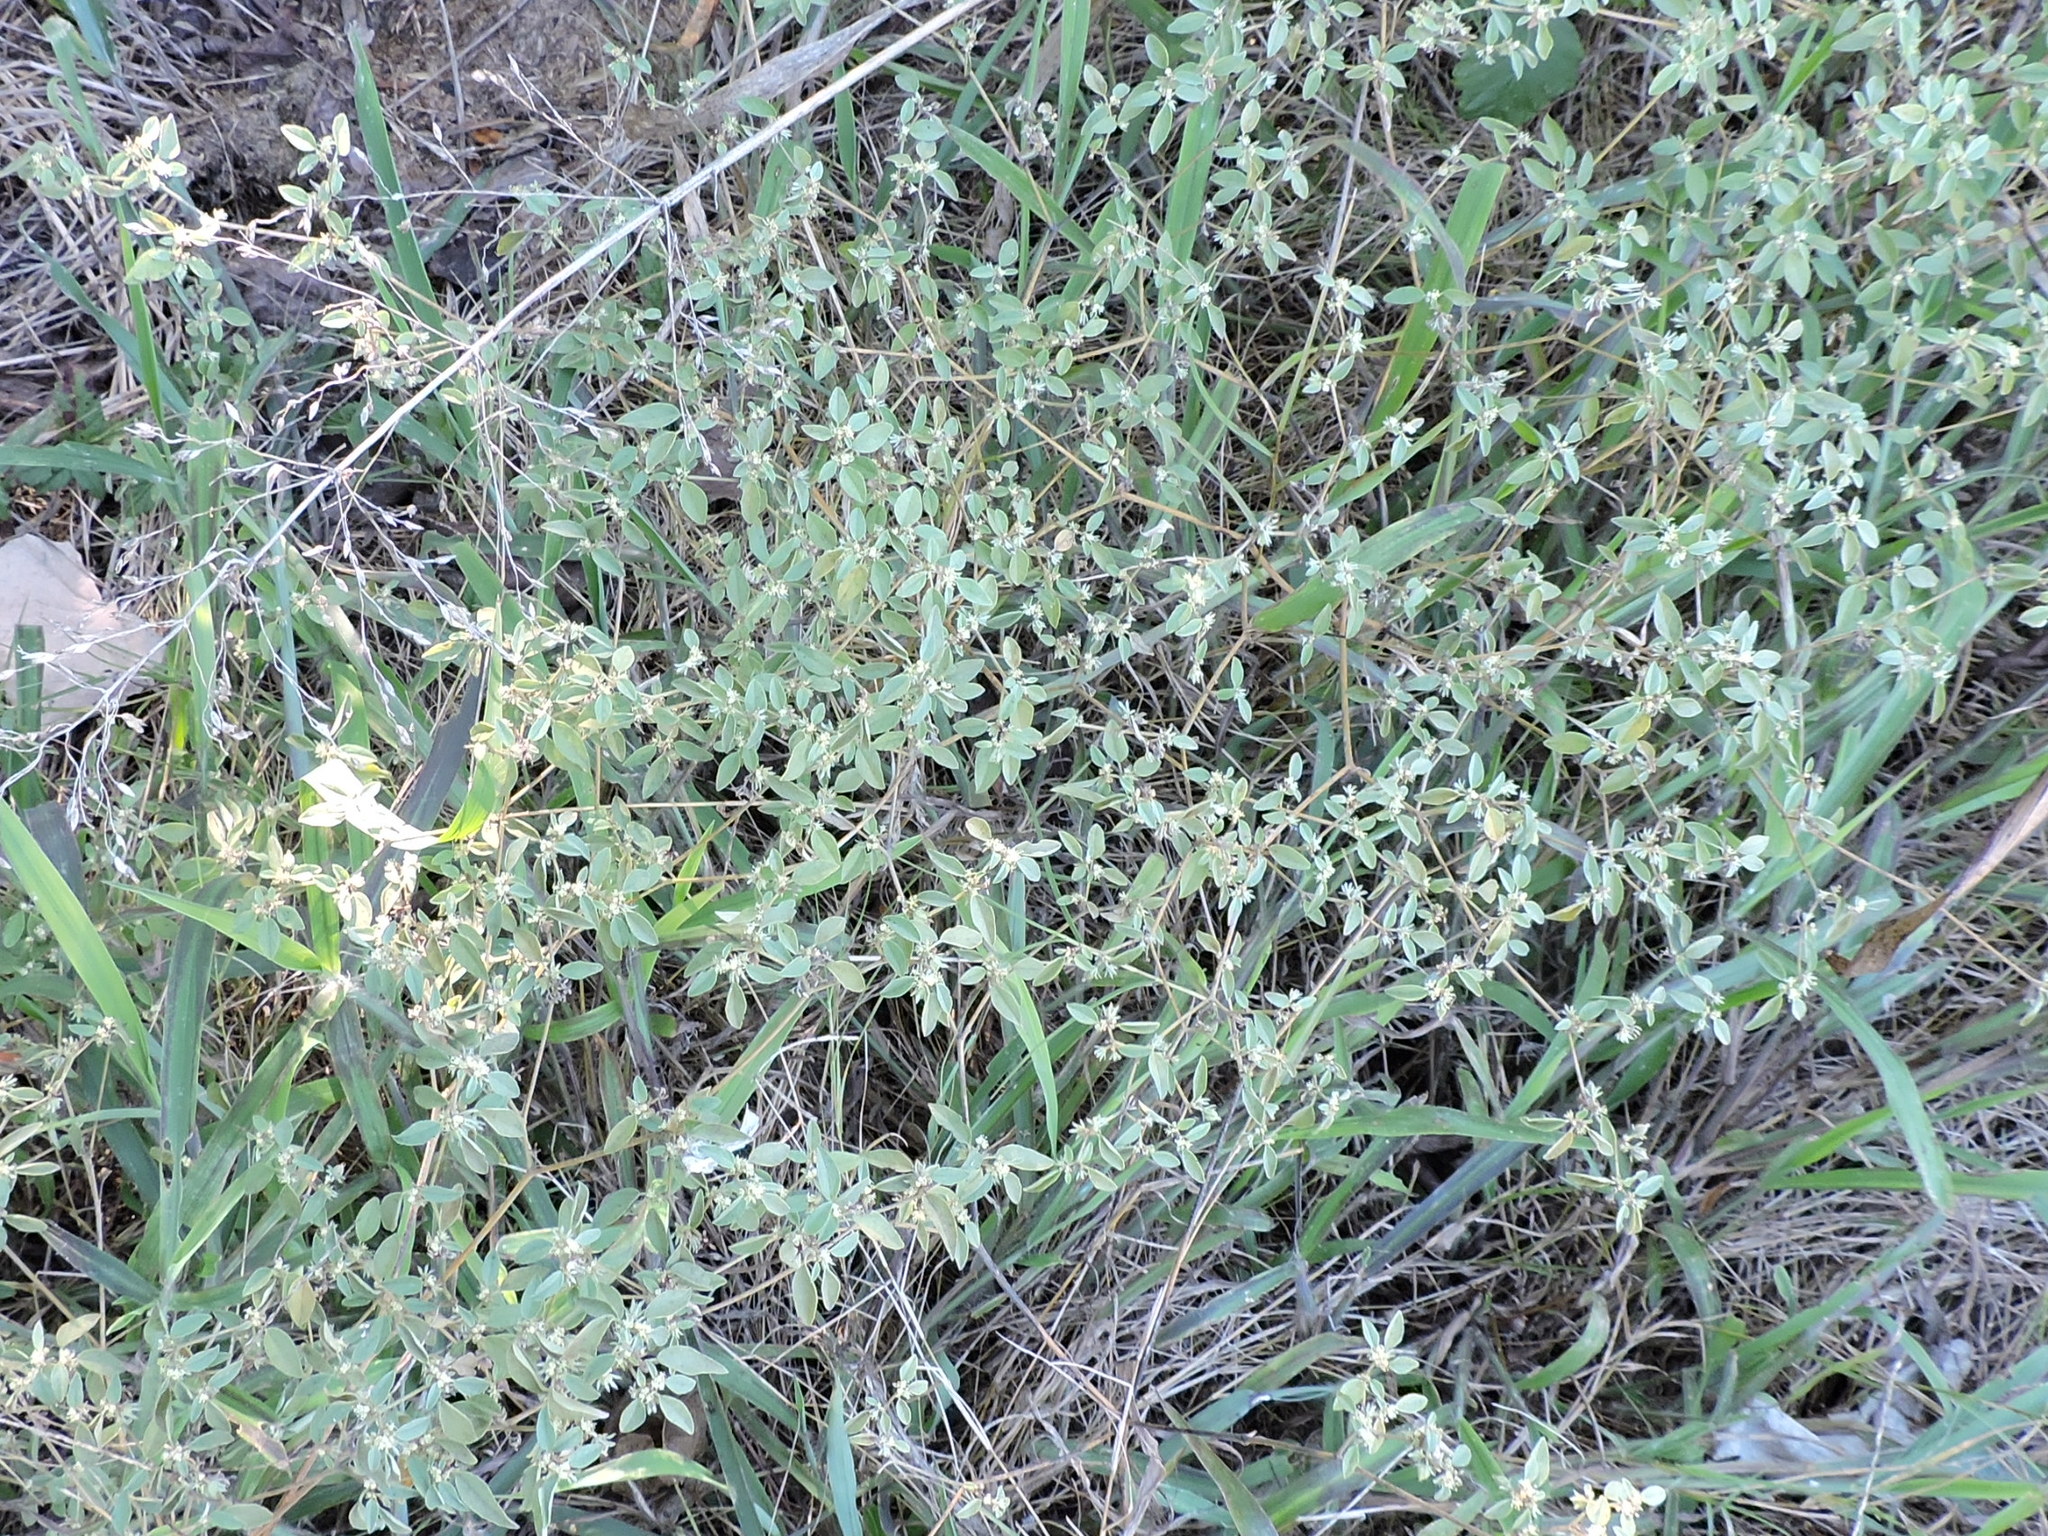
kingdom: Plantae
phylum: Tracheophyta
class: Magnoliopsida
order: Malpighiales
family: Euphorbiaceae
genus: Croton
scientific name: Croton monanthogynus
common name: One-seed croton
